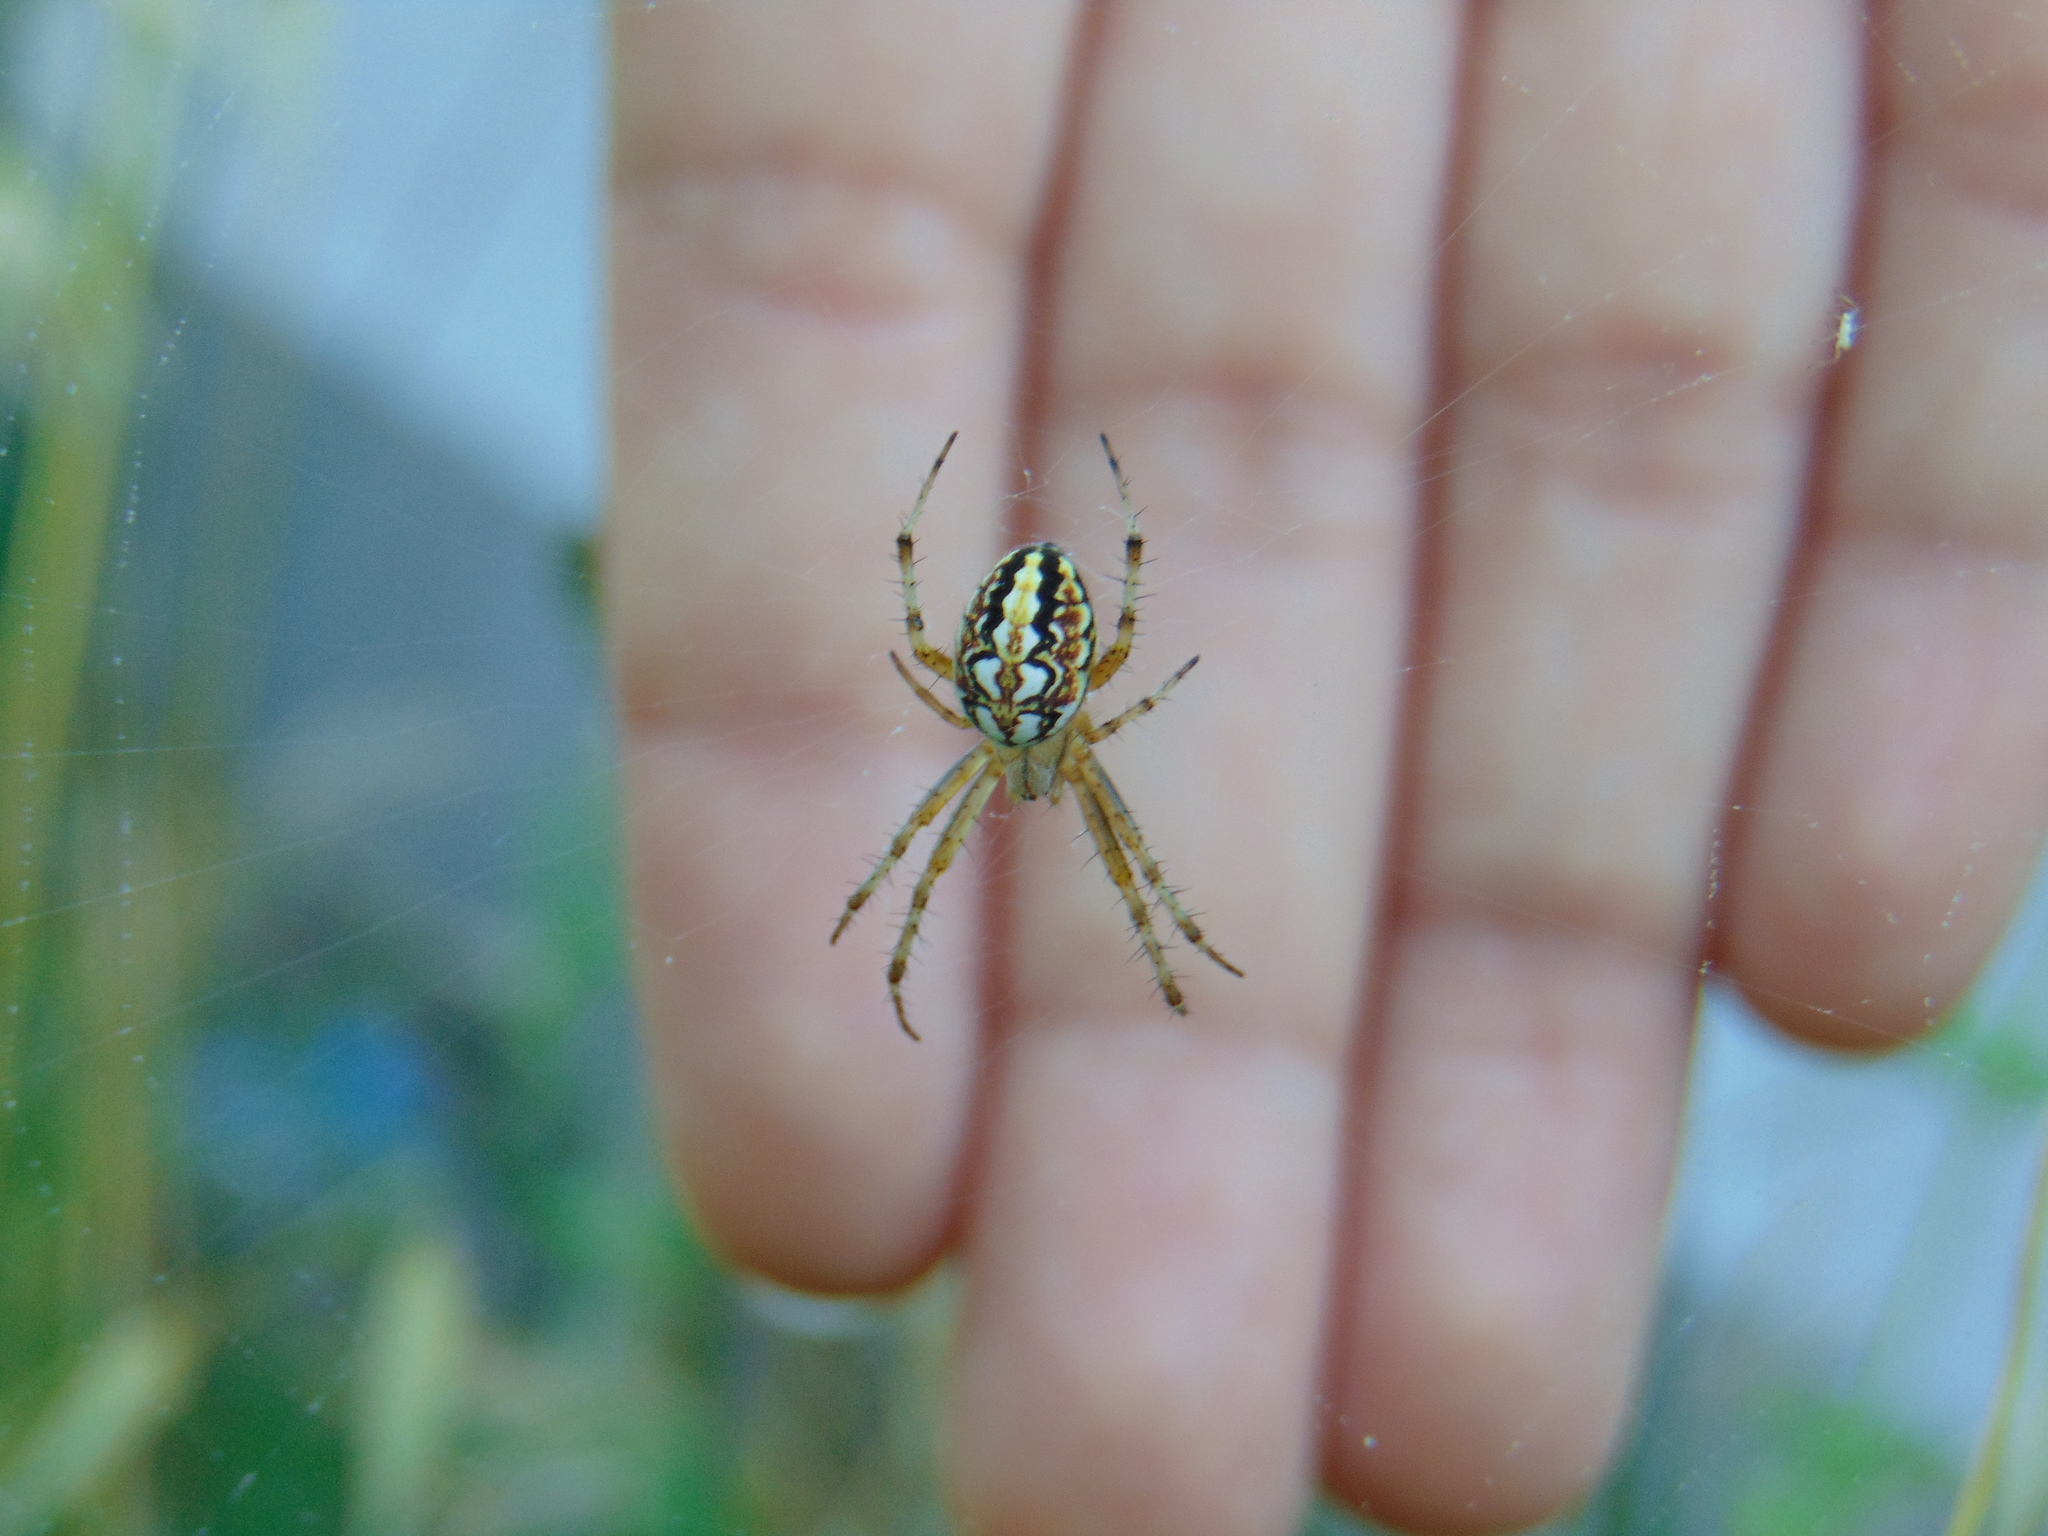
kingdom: Animalia
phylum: Arthropoda
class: Arachnida
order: Araneae
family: Araneidae
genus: Neoscona
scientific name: Neoscona adianta
